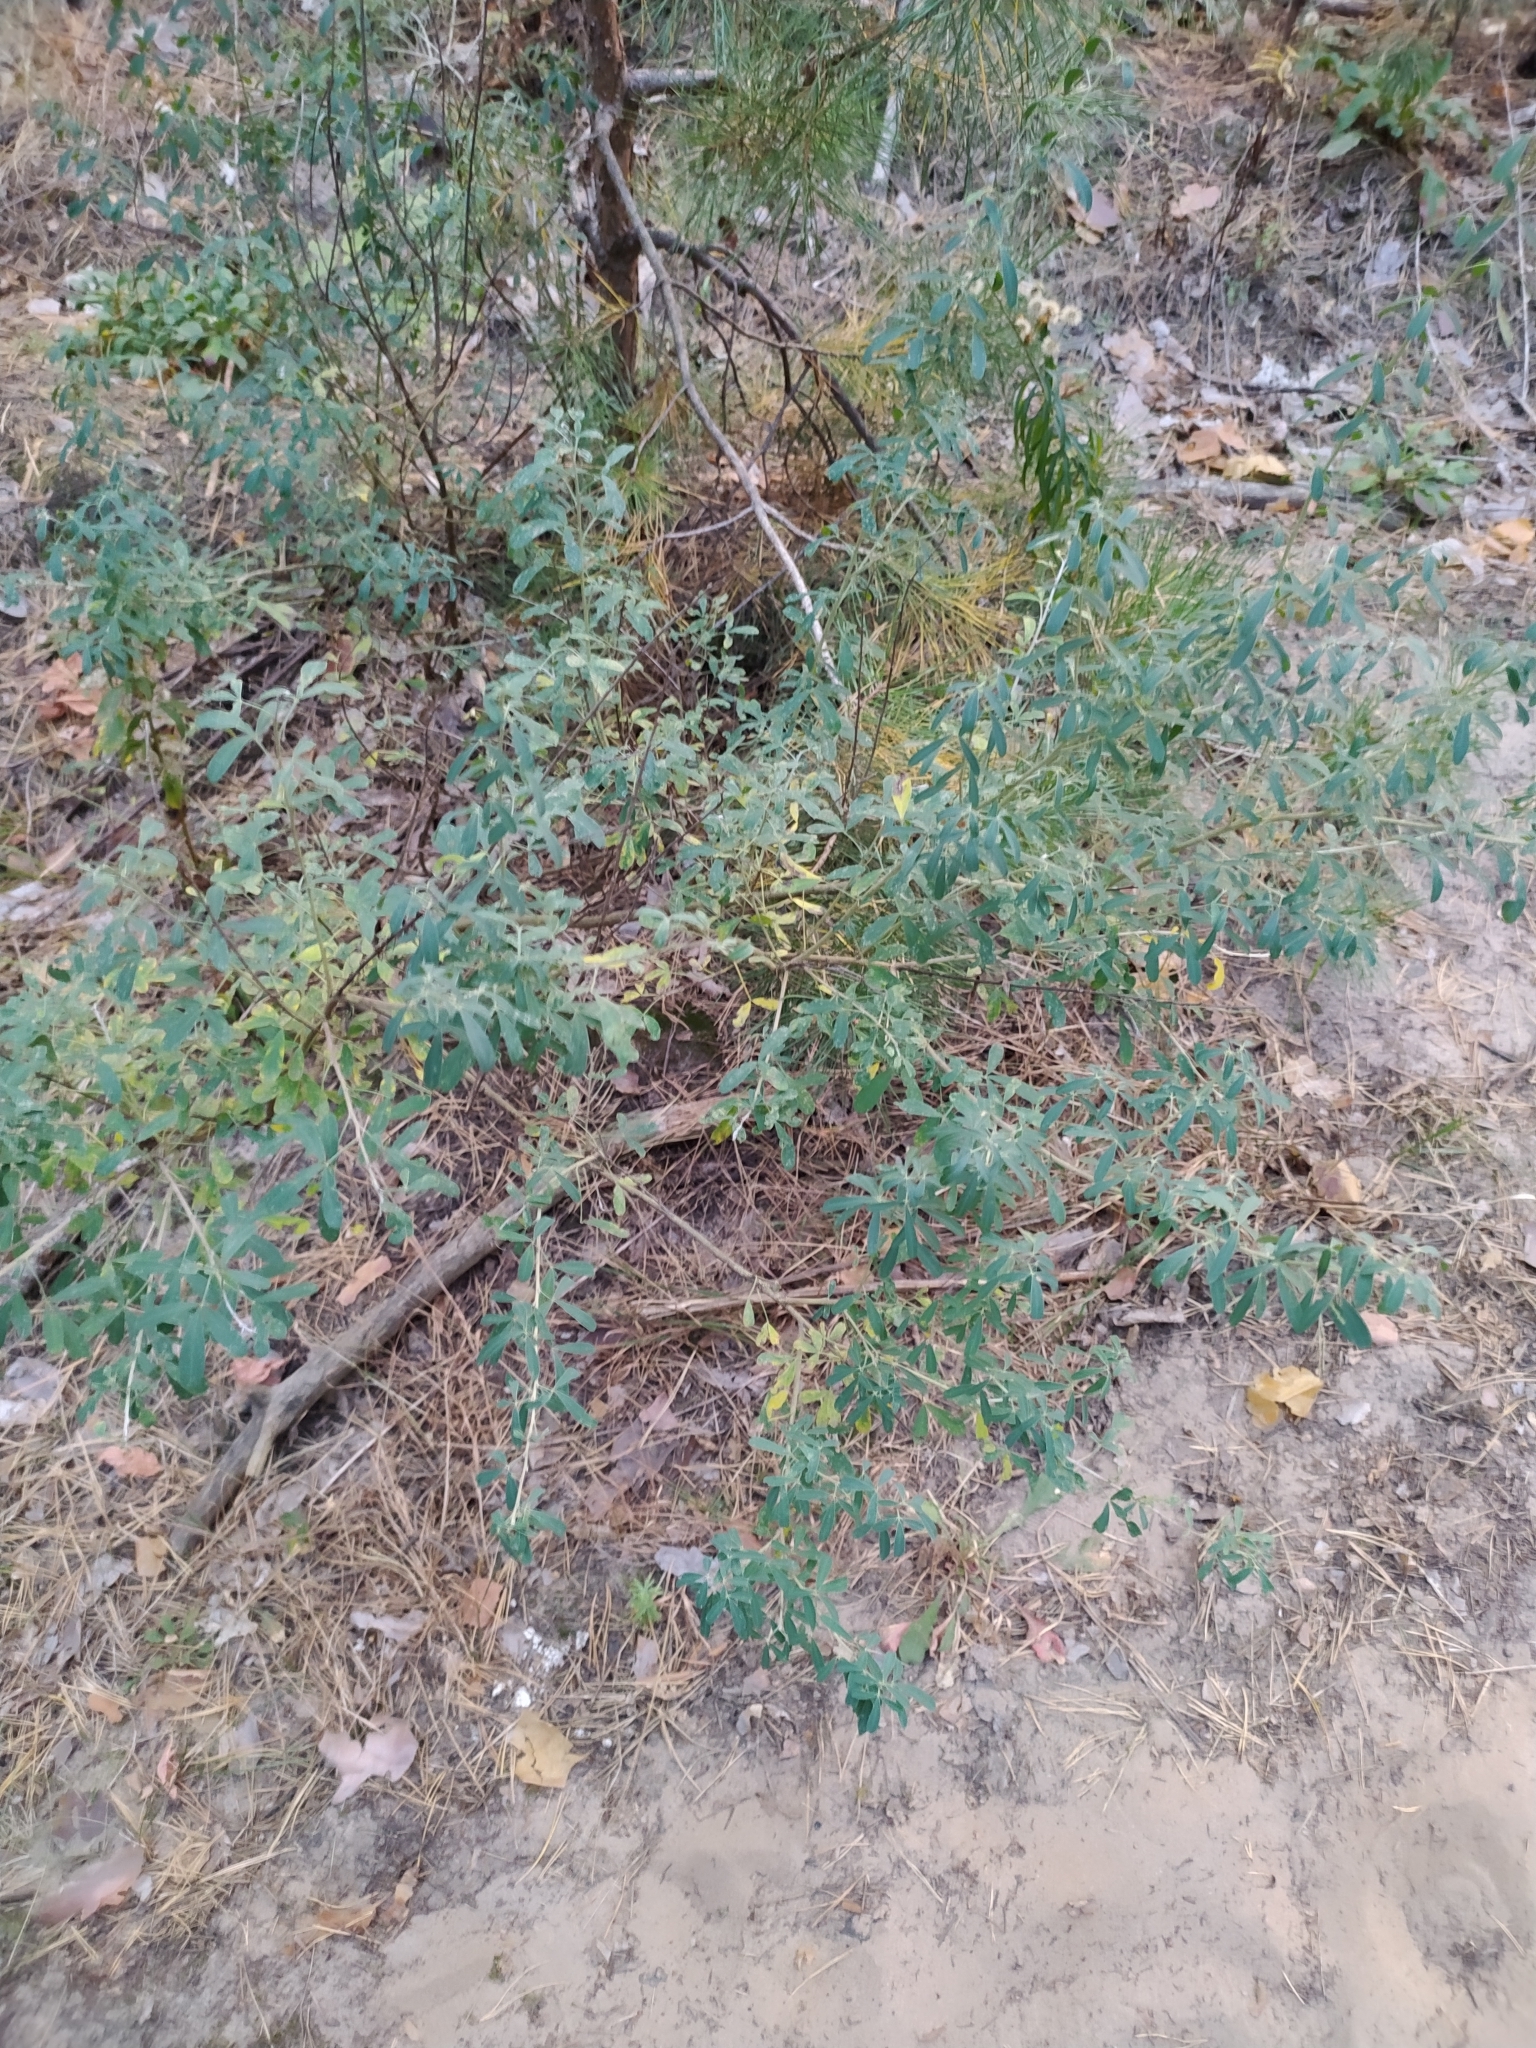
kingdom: Plantae
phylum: Tracheophyta
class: Magnoliopsida
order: Fabales
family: Fabaceae
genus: Chamaecytisus
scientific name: Chamaecytisus ruthenicus
